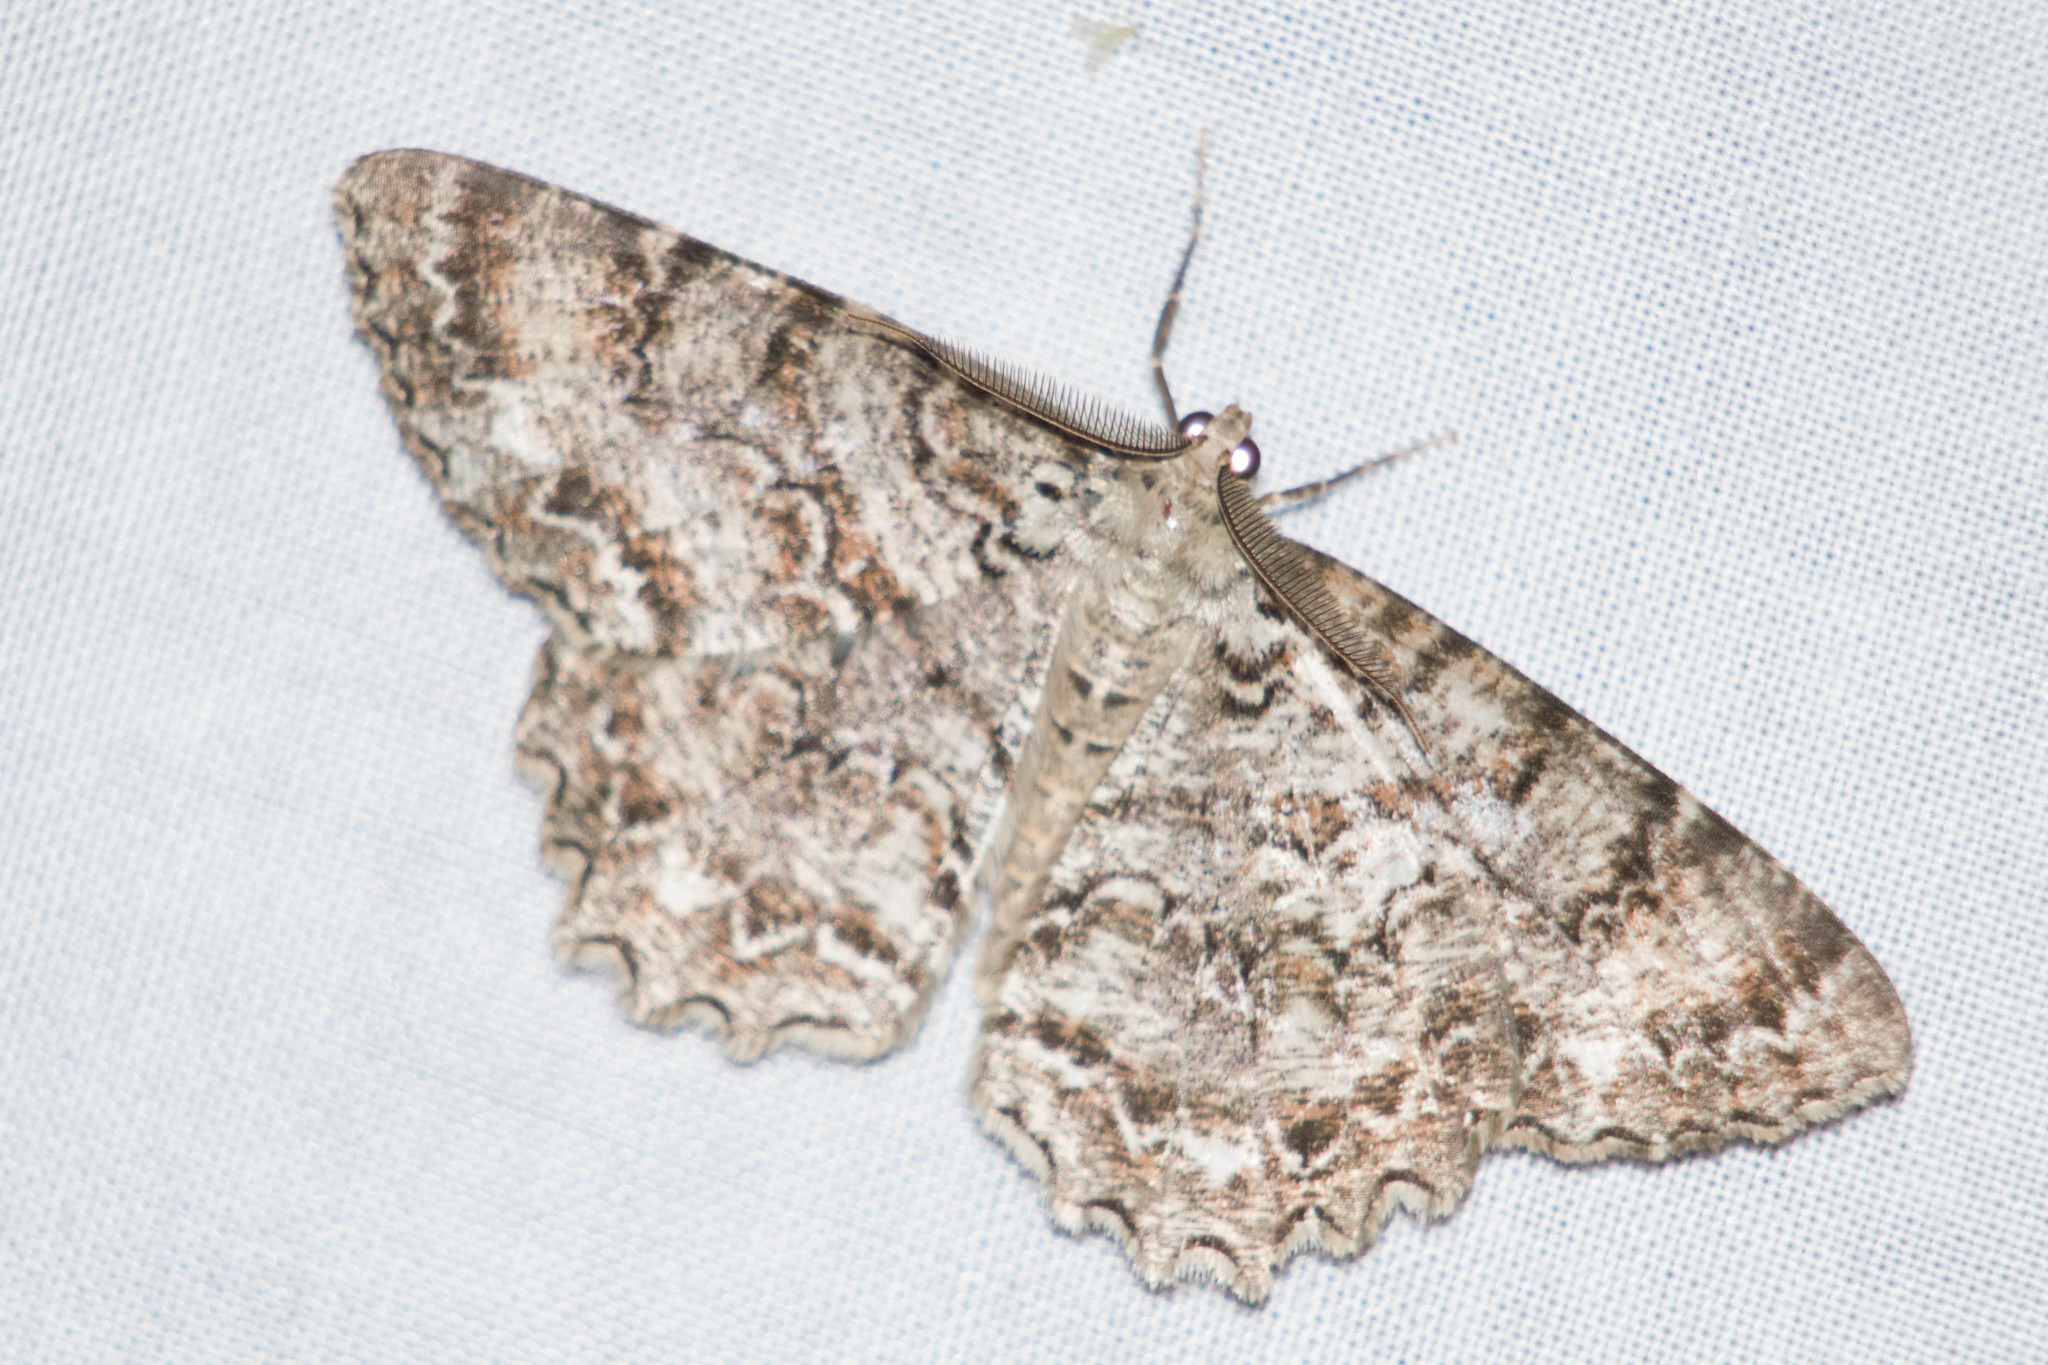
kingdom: Animalia
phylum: Arthropoda
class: Insecta
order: Lepidoptera
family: Geometridae
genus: Epimecis
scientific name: Epimecis hortaria
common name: Tulip-tree beauty
